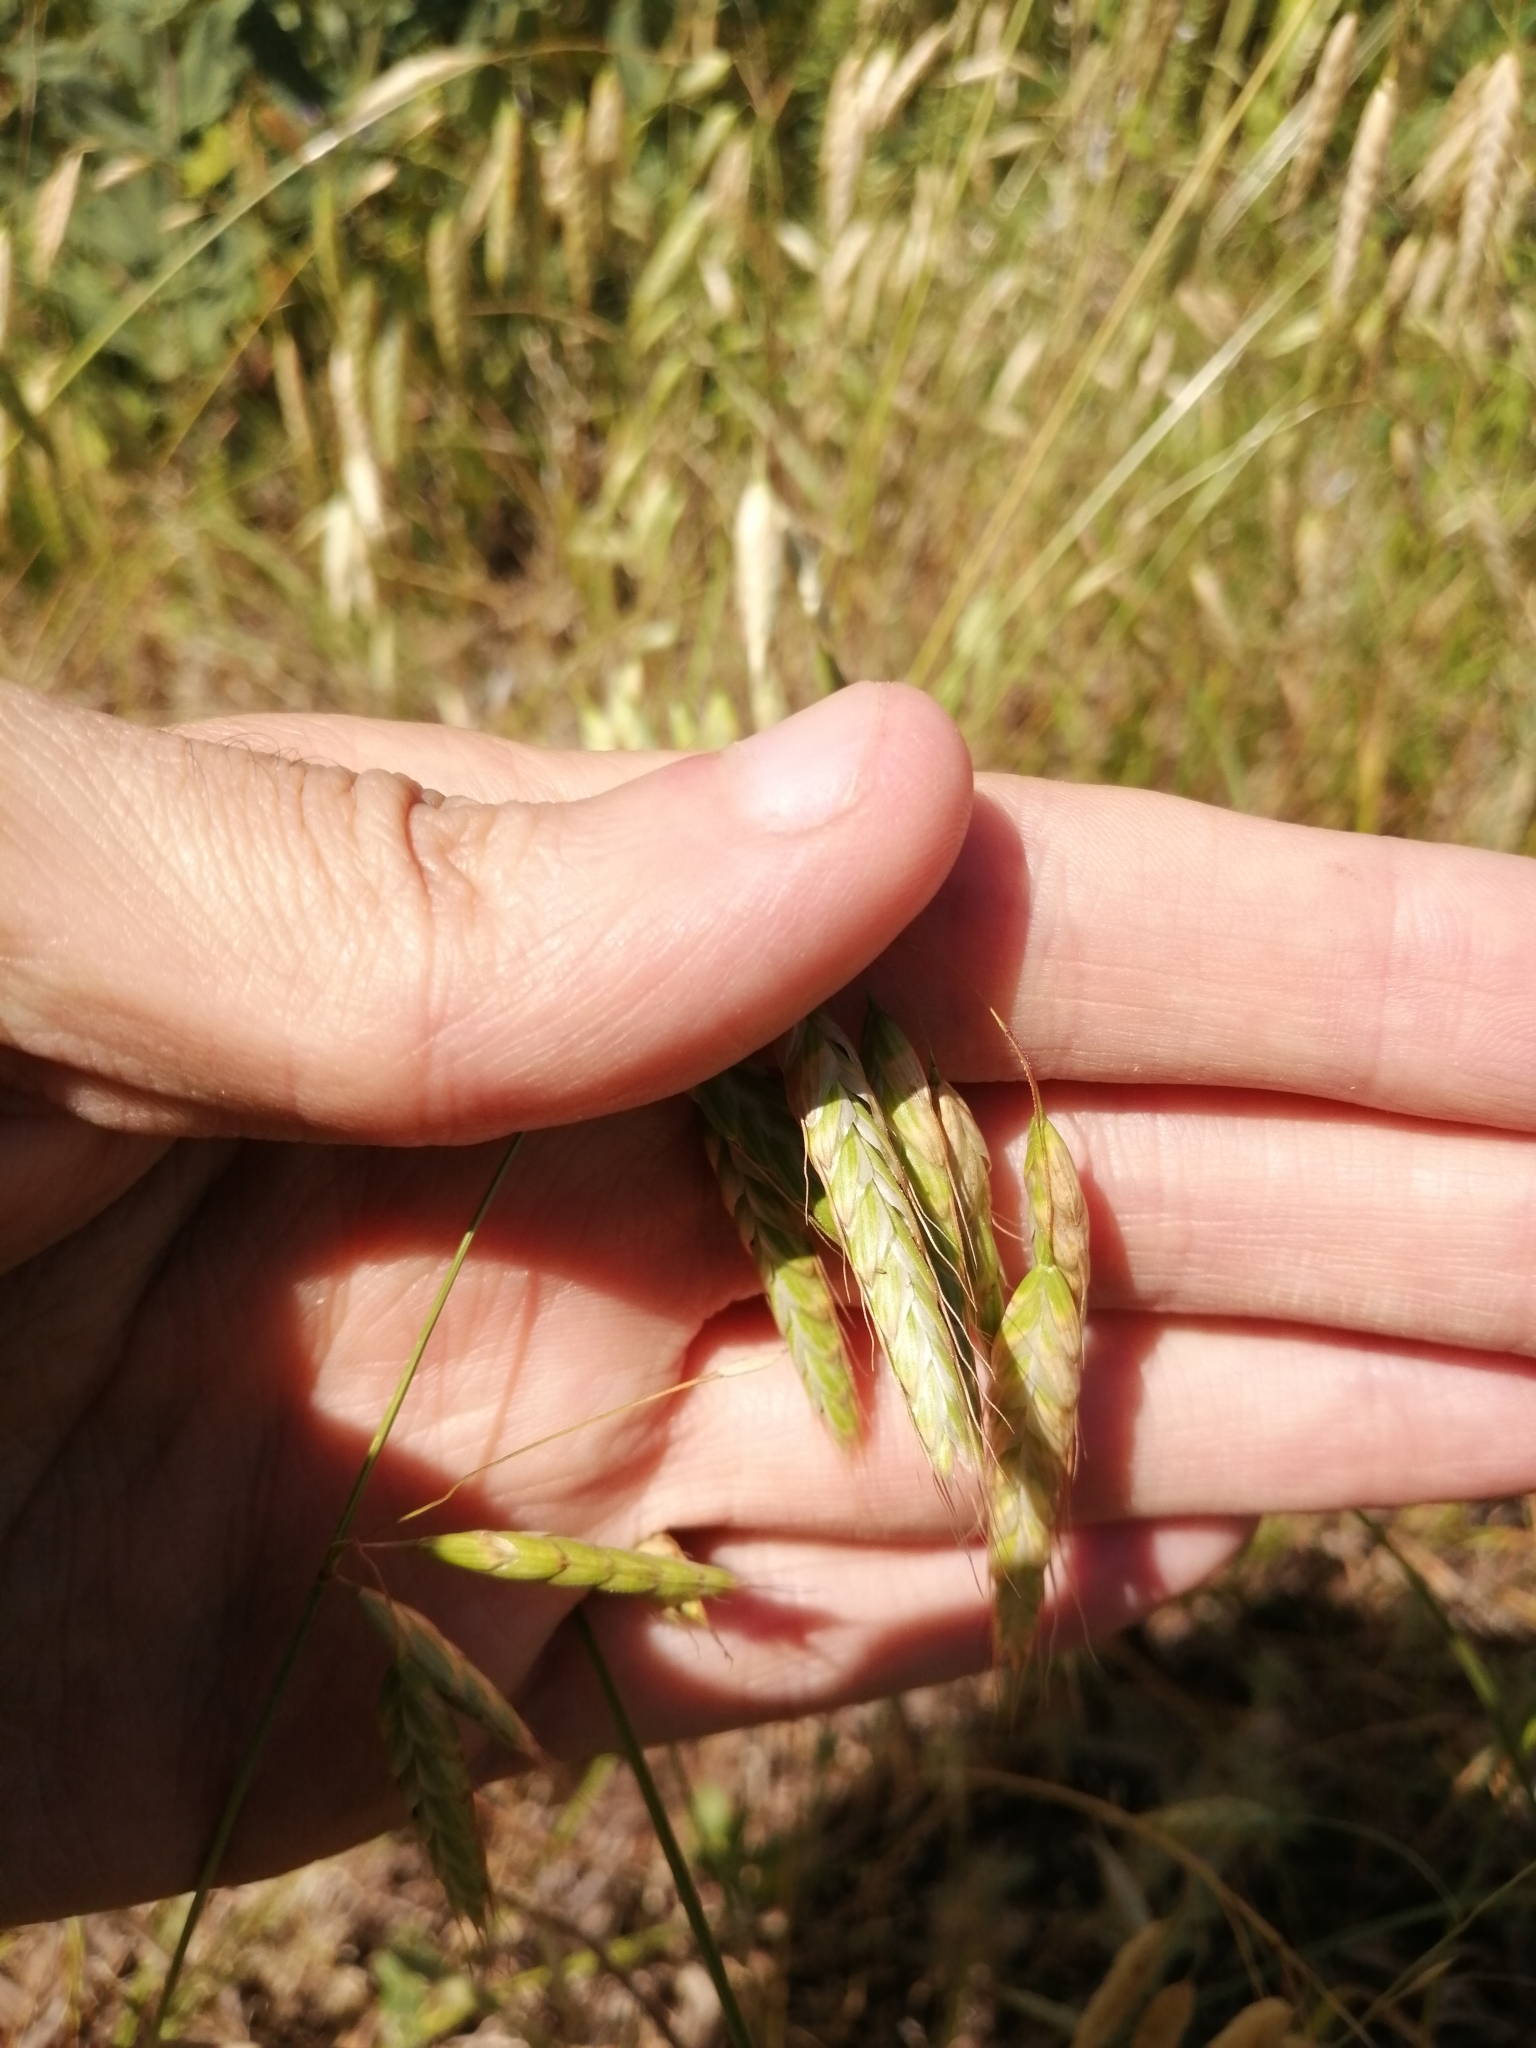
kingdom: Plantae
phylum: Tracheophyta
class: Liliopsida
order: Poales
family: Poaceae
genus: Bromus
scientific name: Bromus squarrosus
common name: Corn brome
